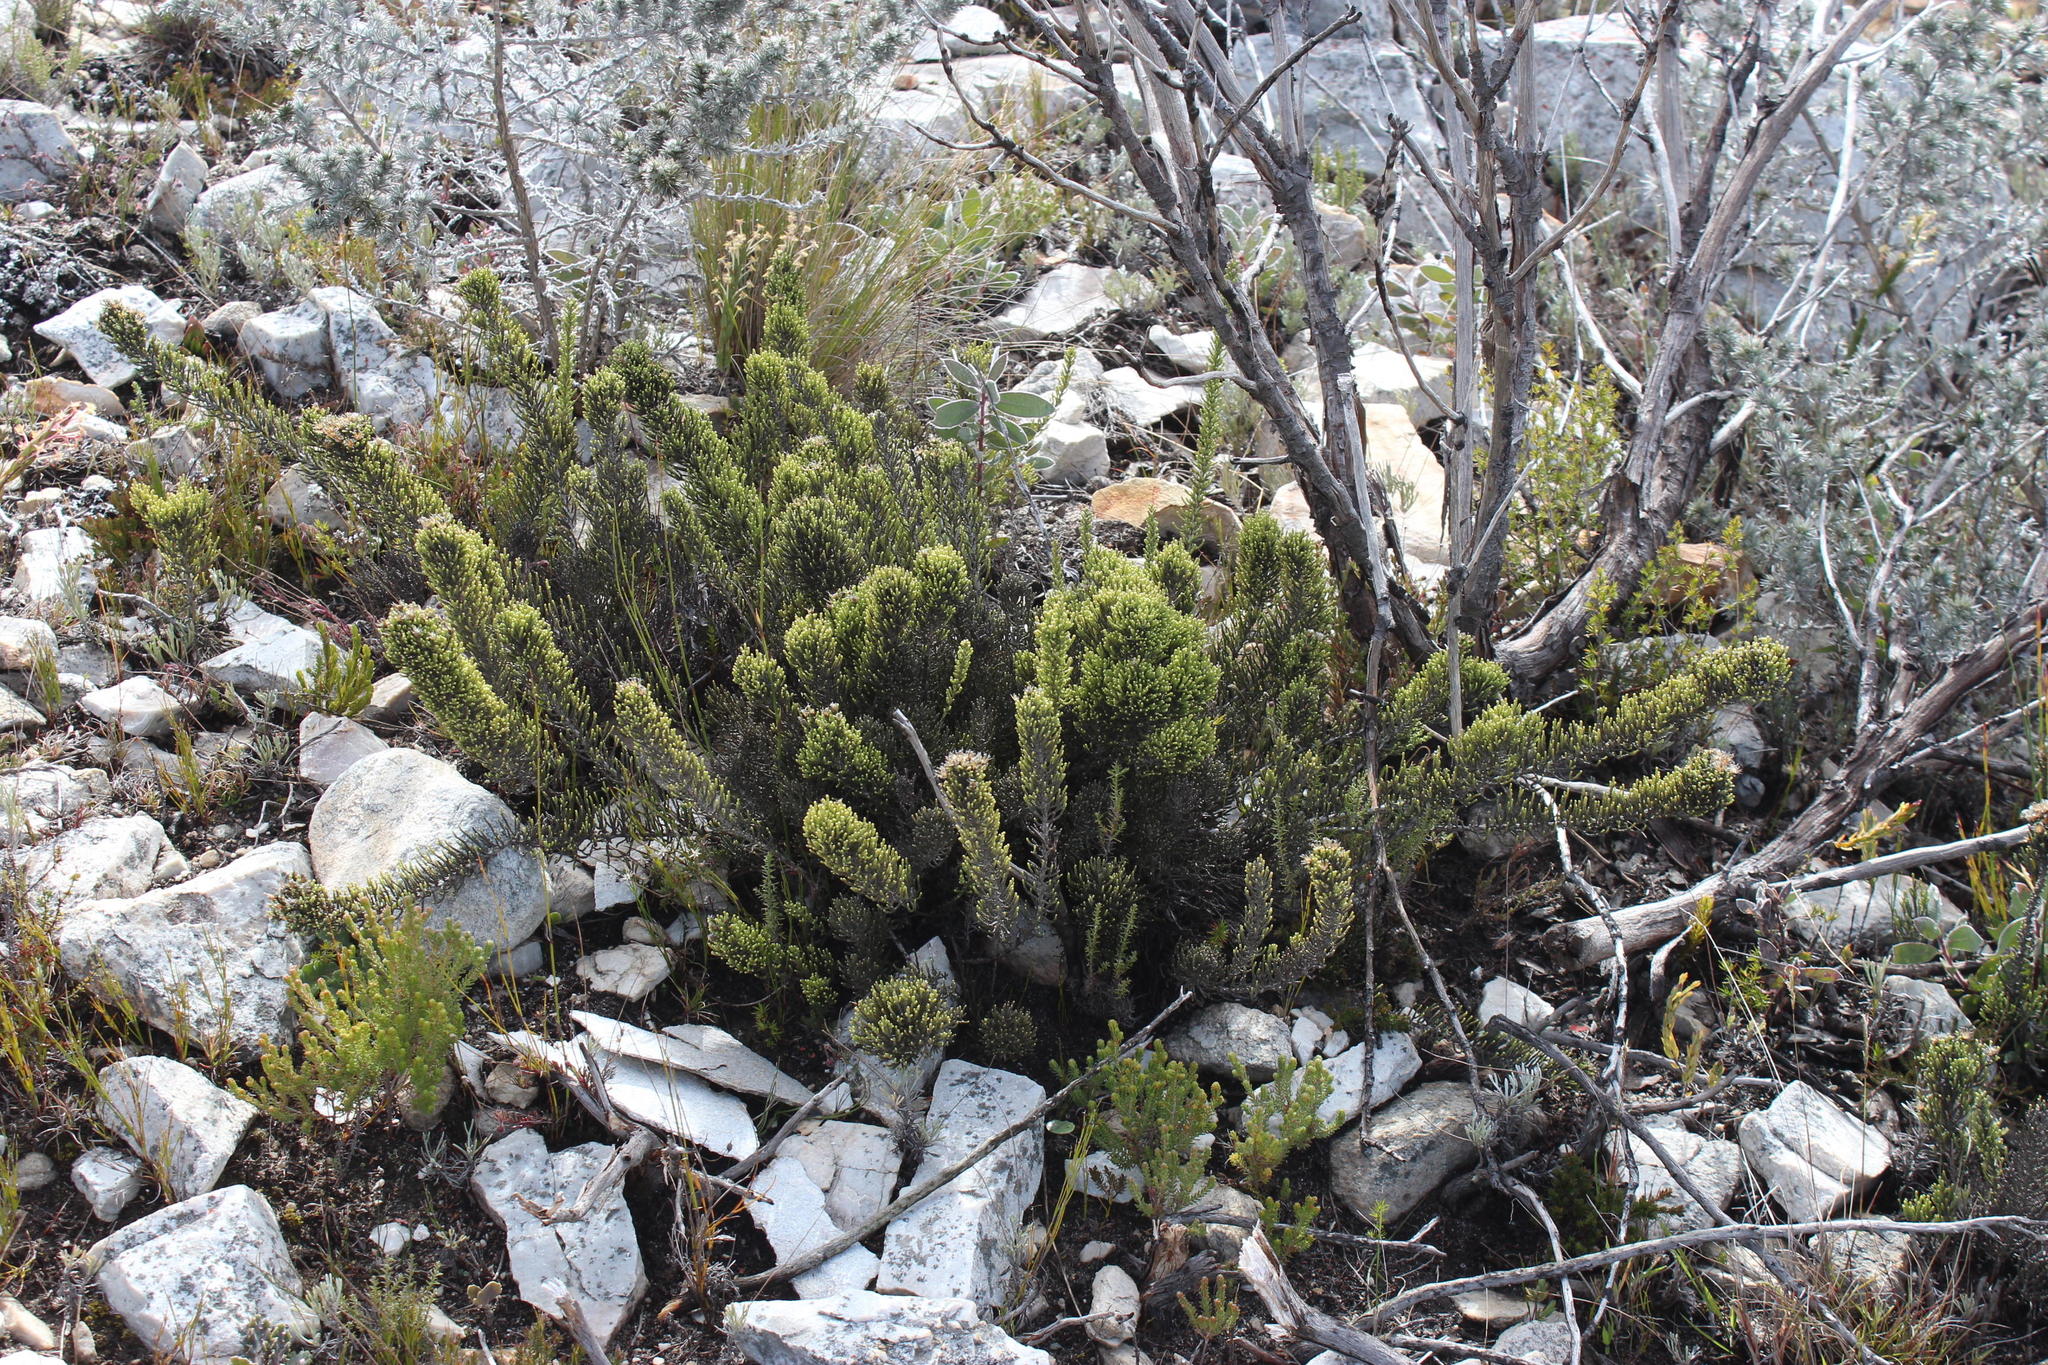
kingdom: Plantae
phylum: Tracheophyta
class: Magnoliopsida
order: Asterales
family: Asteraceae
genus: Dolichothrix
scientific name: Dolichothrix ericoides
